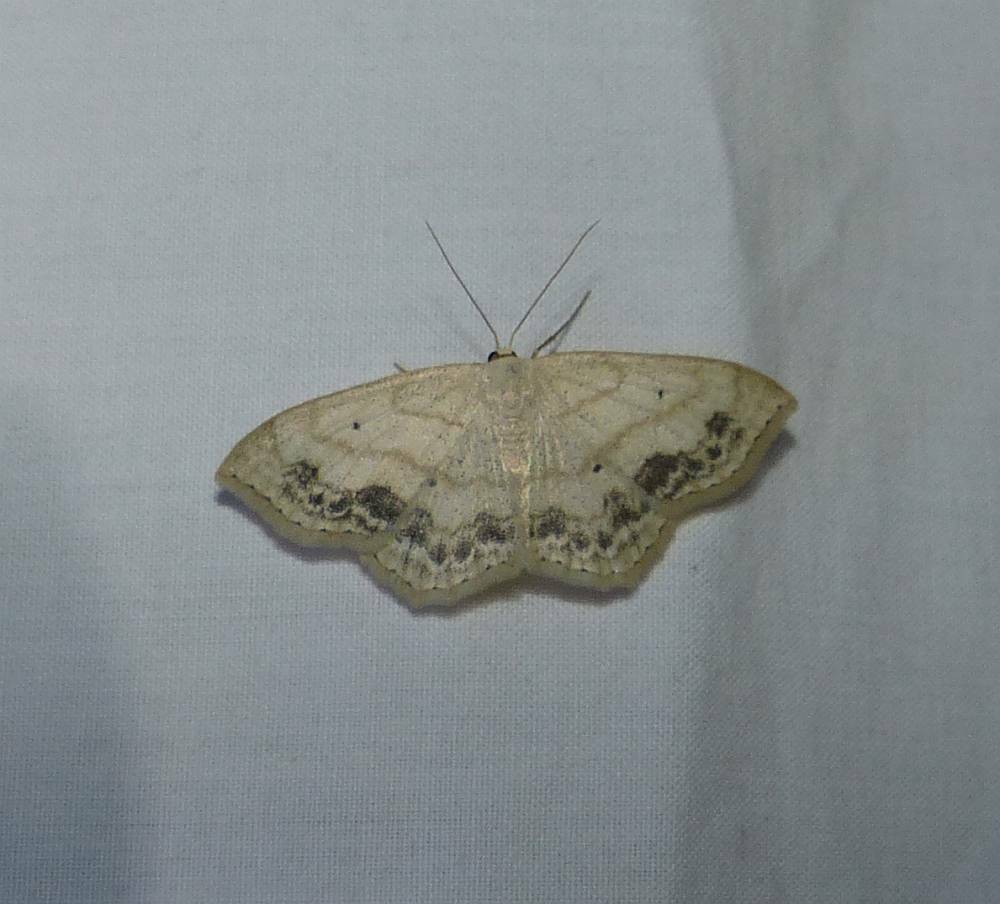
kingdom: Animalia
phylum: Arthropoda
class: Insecta
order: Lepidoptera
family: Geometridae
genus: Scopula
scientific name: Scopula limboundata
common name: Large lace border
